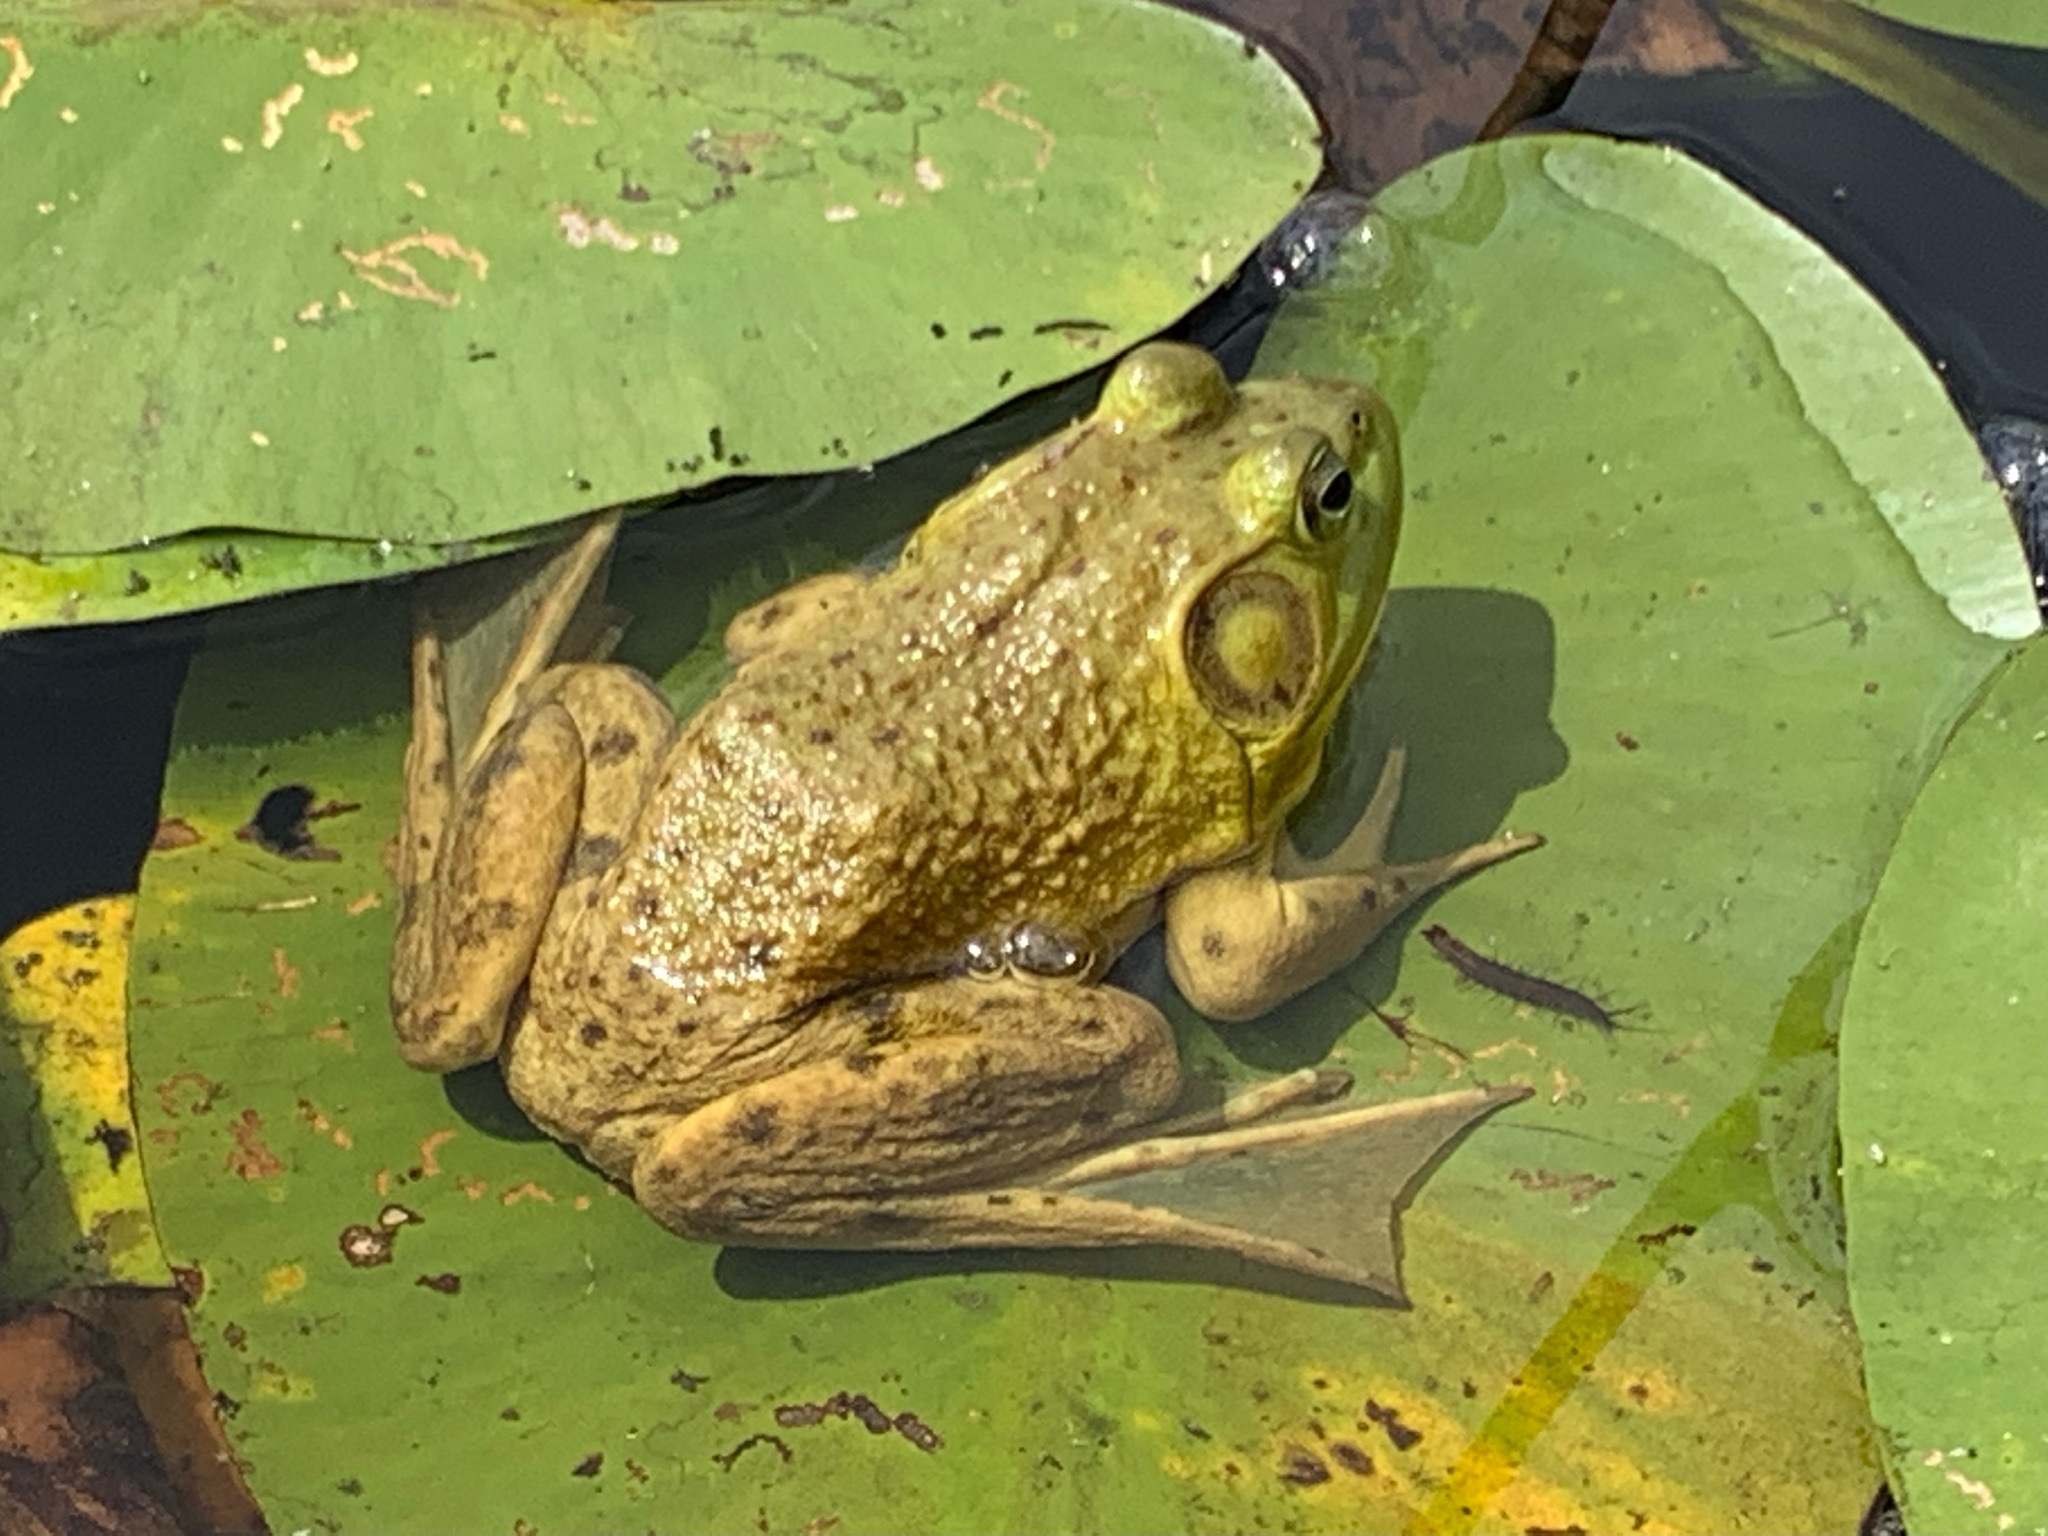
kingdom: Animalia
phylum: Chordata
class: Amphibia
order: Anura
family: Ranidae
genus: Lithobates
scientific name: Lithobates catesbeianus
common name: American bullfrog
